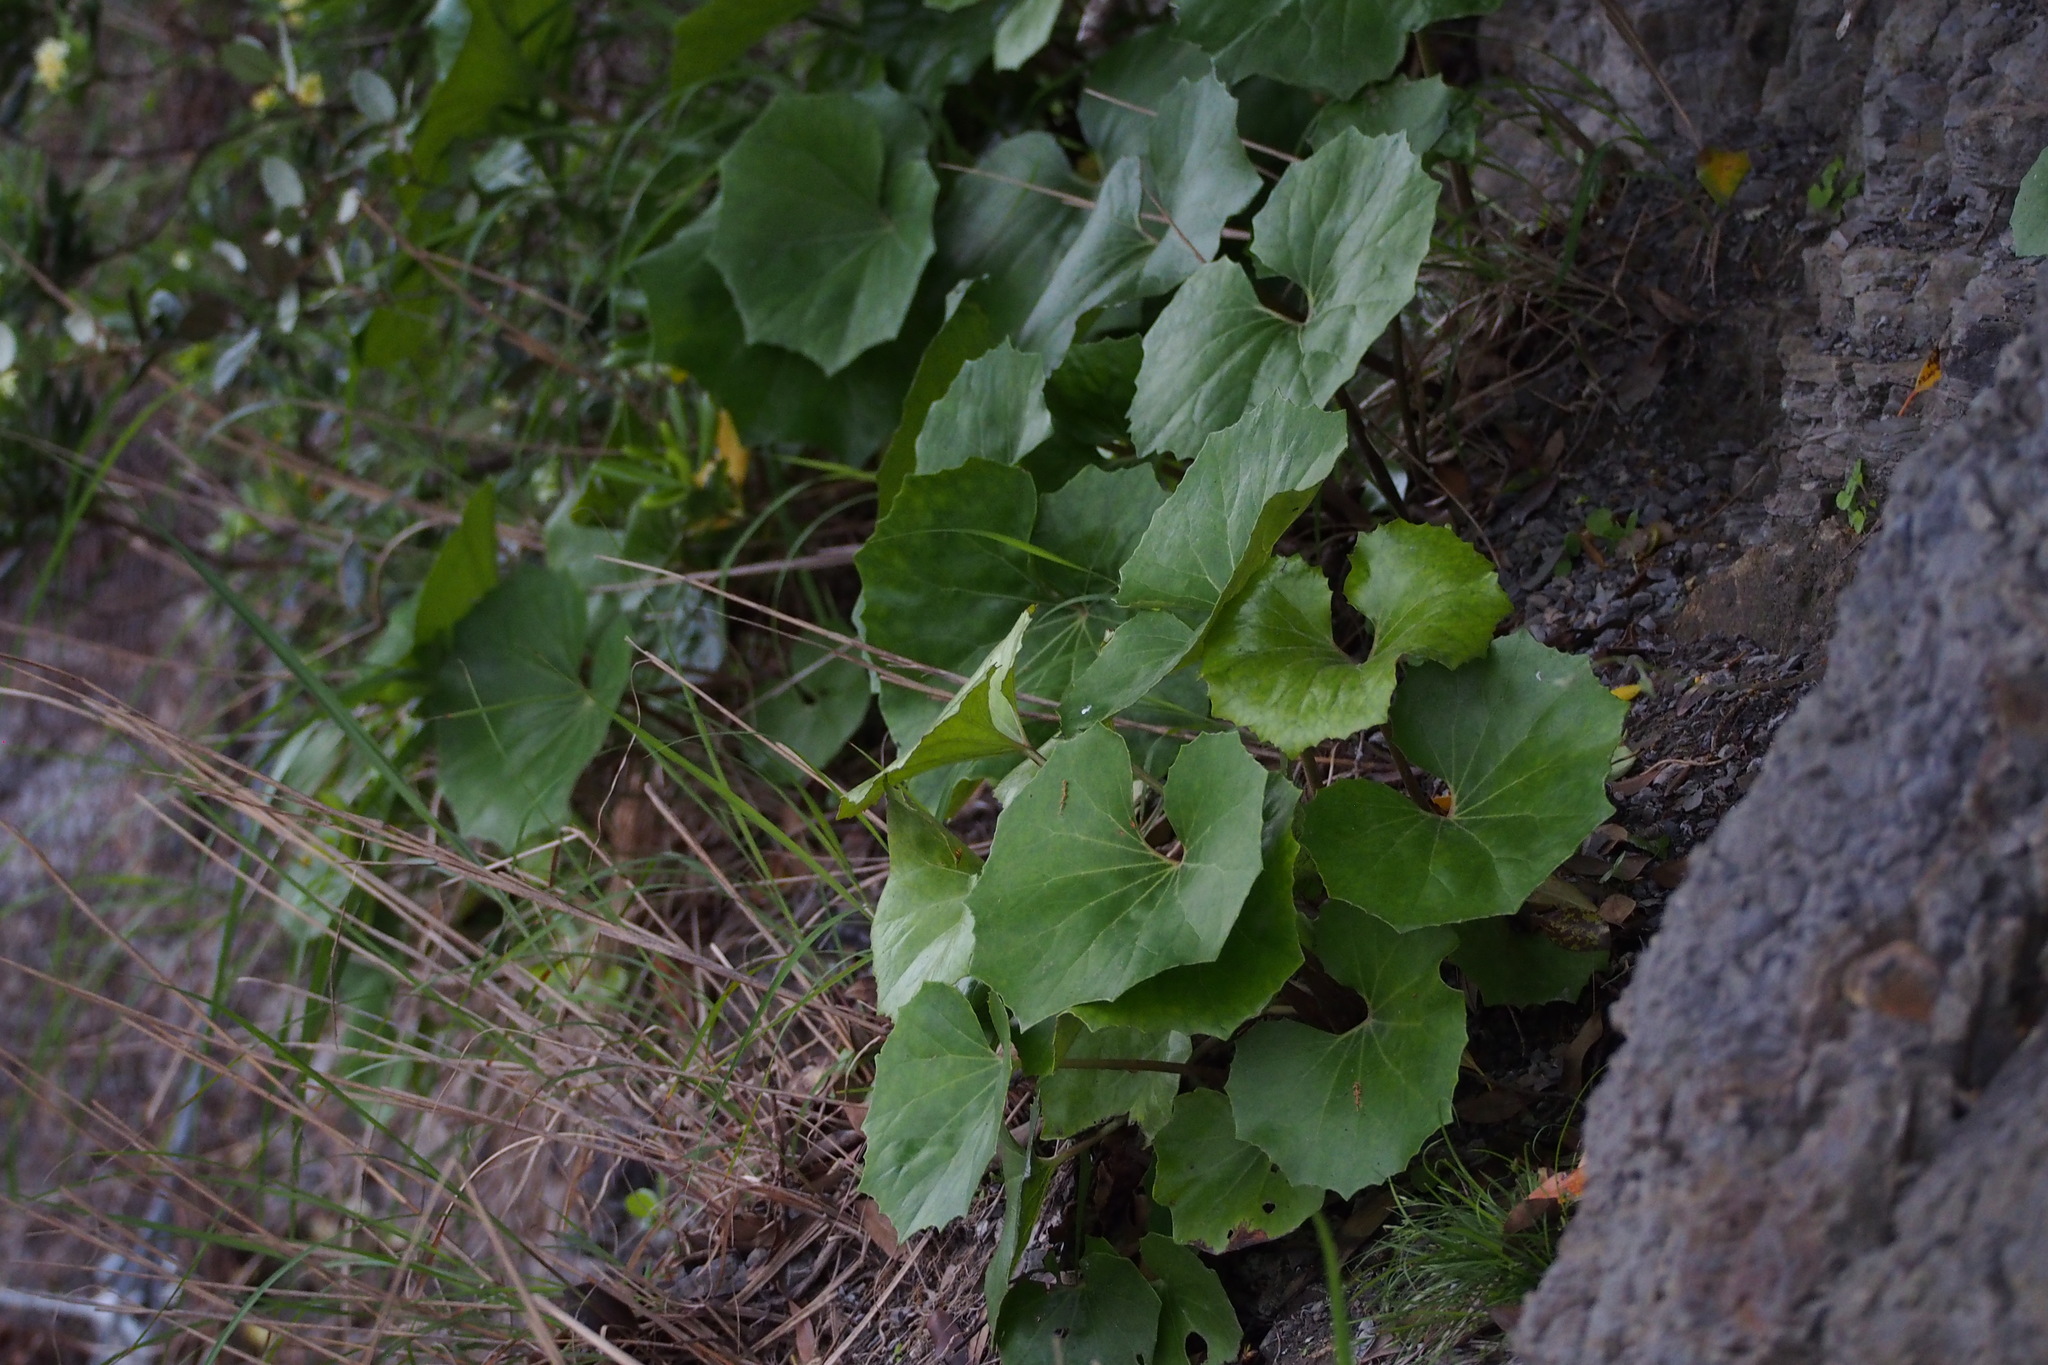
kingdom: Plantae
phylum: Tracheophyta
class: Magnoliopsida
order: Asterales
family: Asteraceae
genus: Farfugium
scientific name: Farfugium japonicum
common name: Leopardplant
